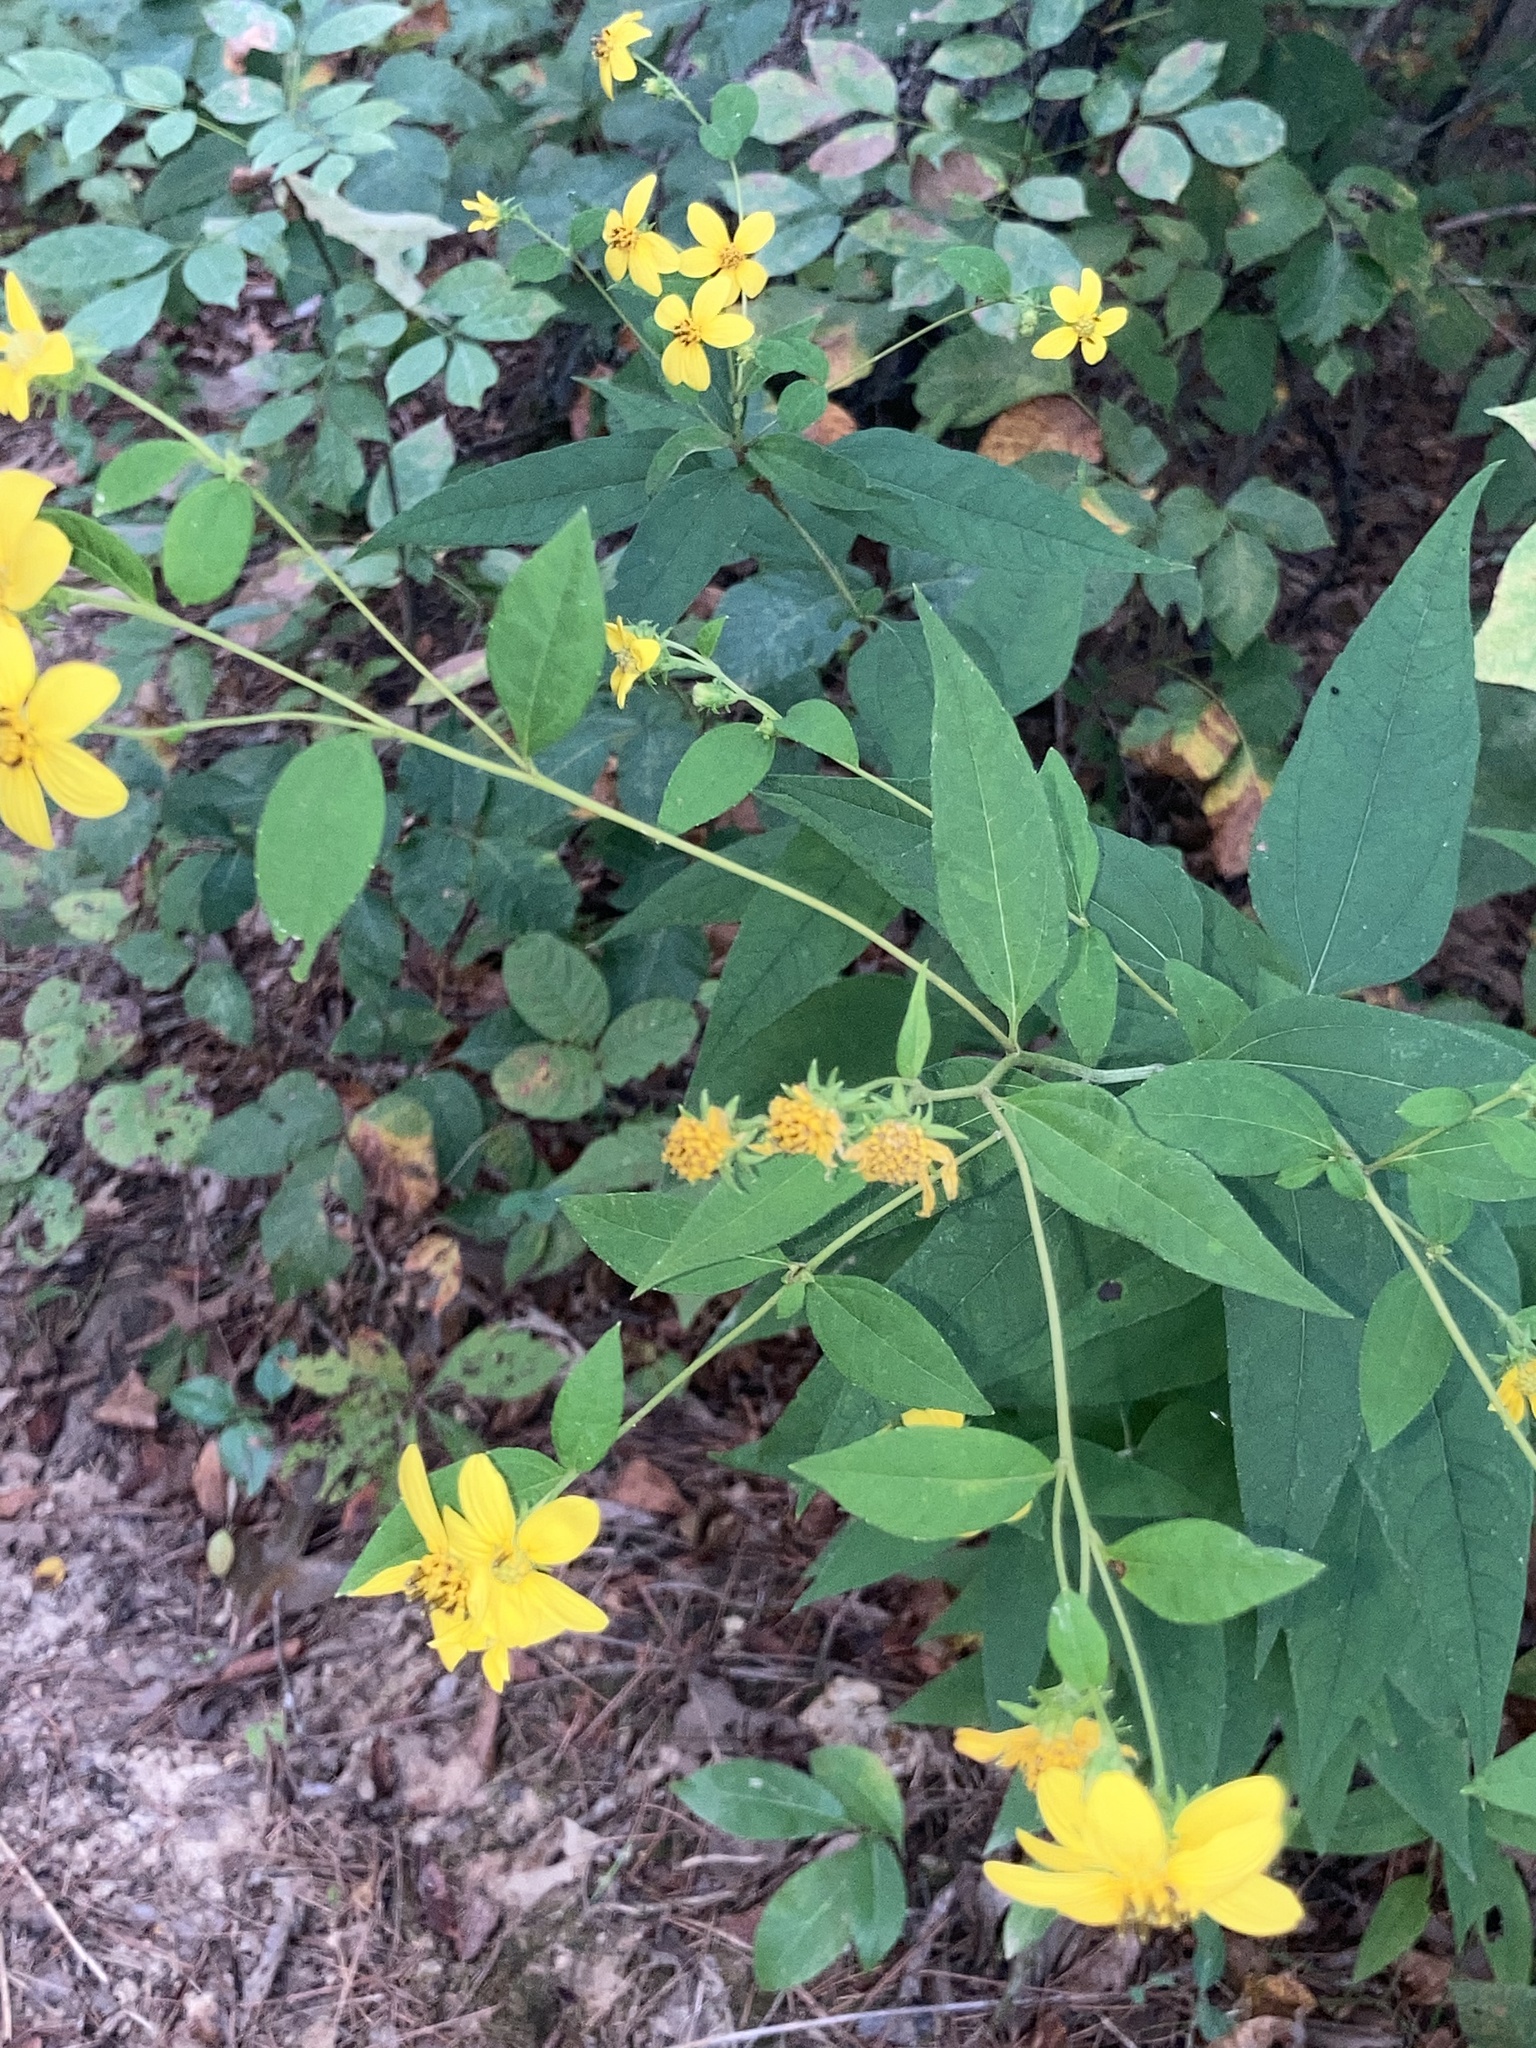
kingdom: Plantae
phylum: Tracheophyta
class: Magnoliopsida
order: Asterales
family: Asteraceae
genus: Helianthus
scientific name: Helianthus microcephalus
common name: Woodland sunflower
